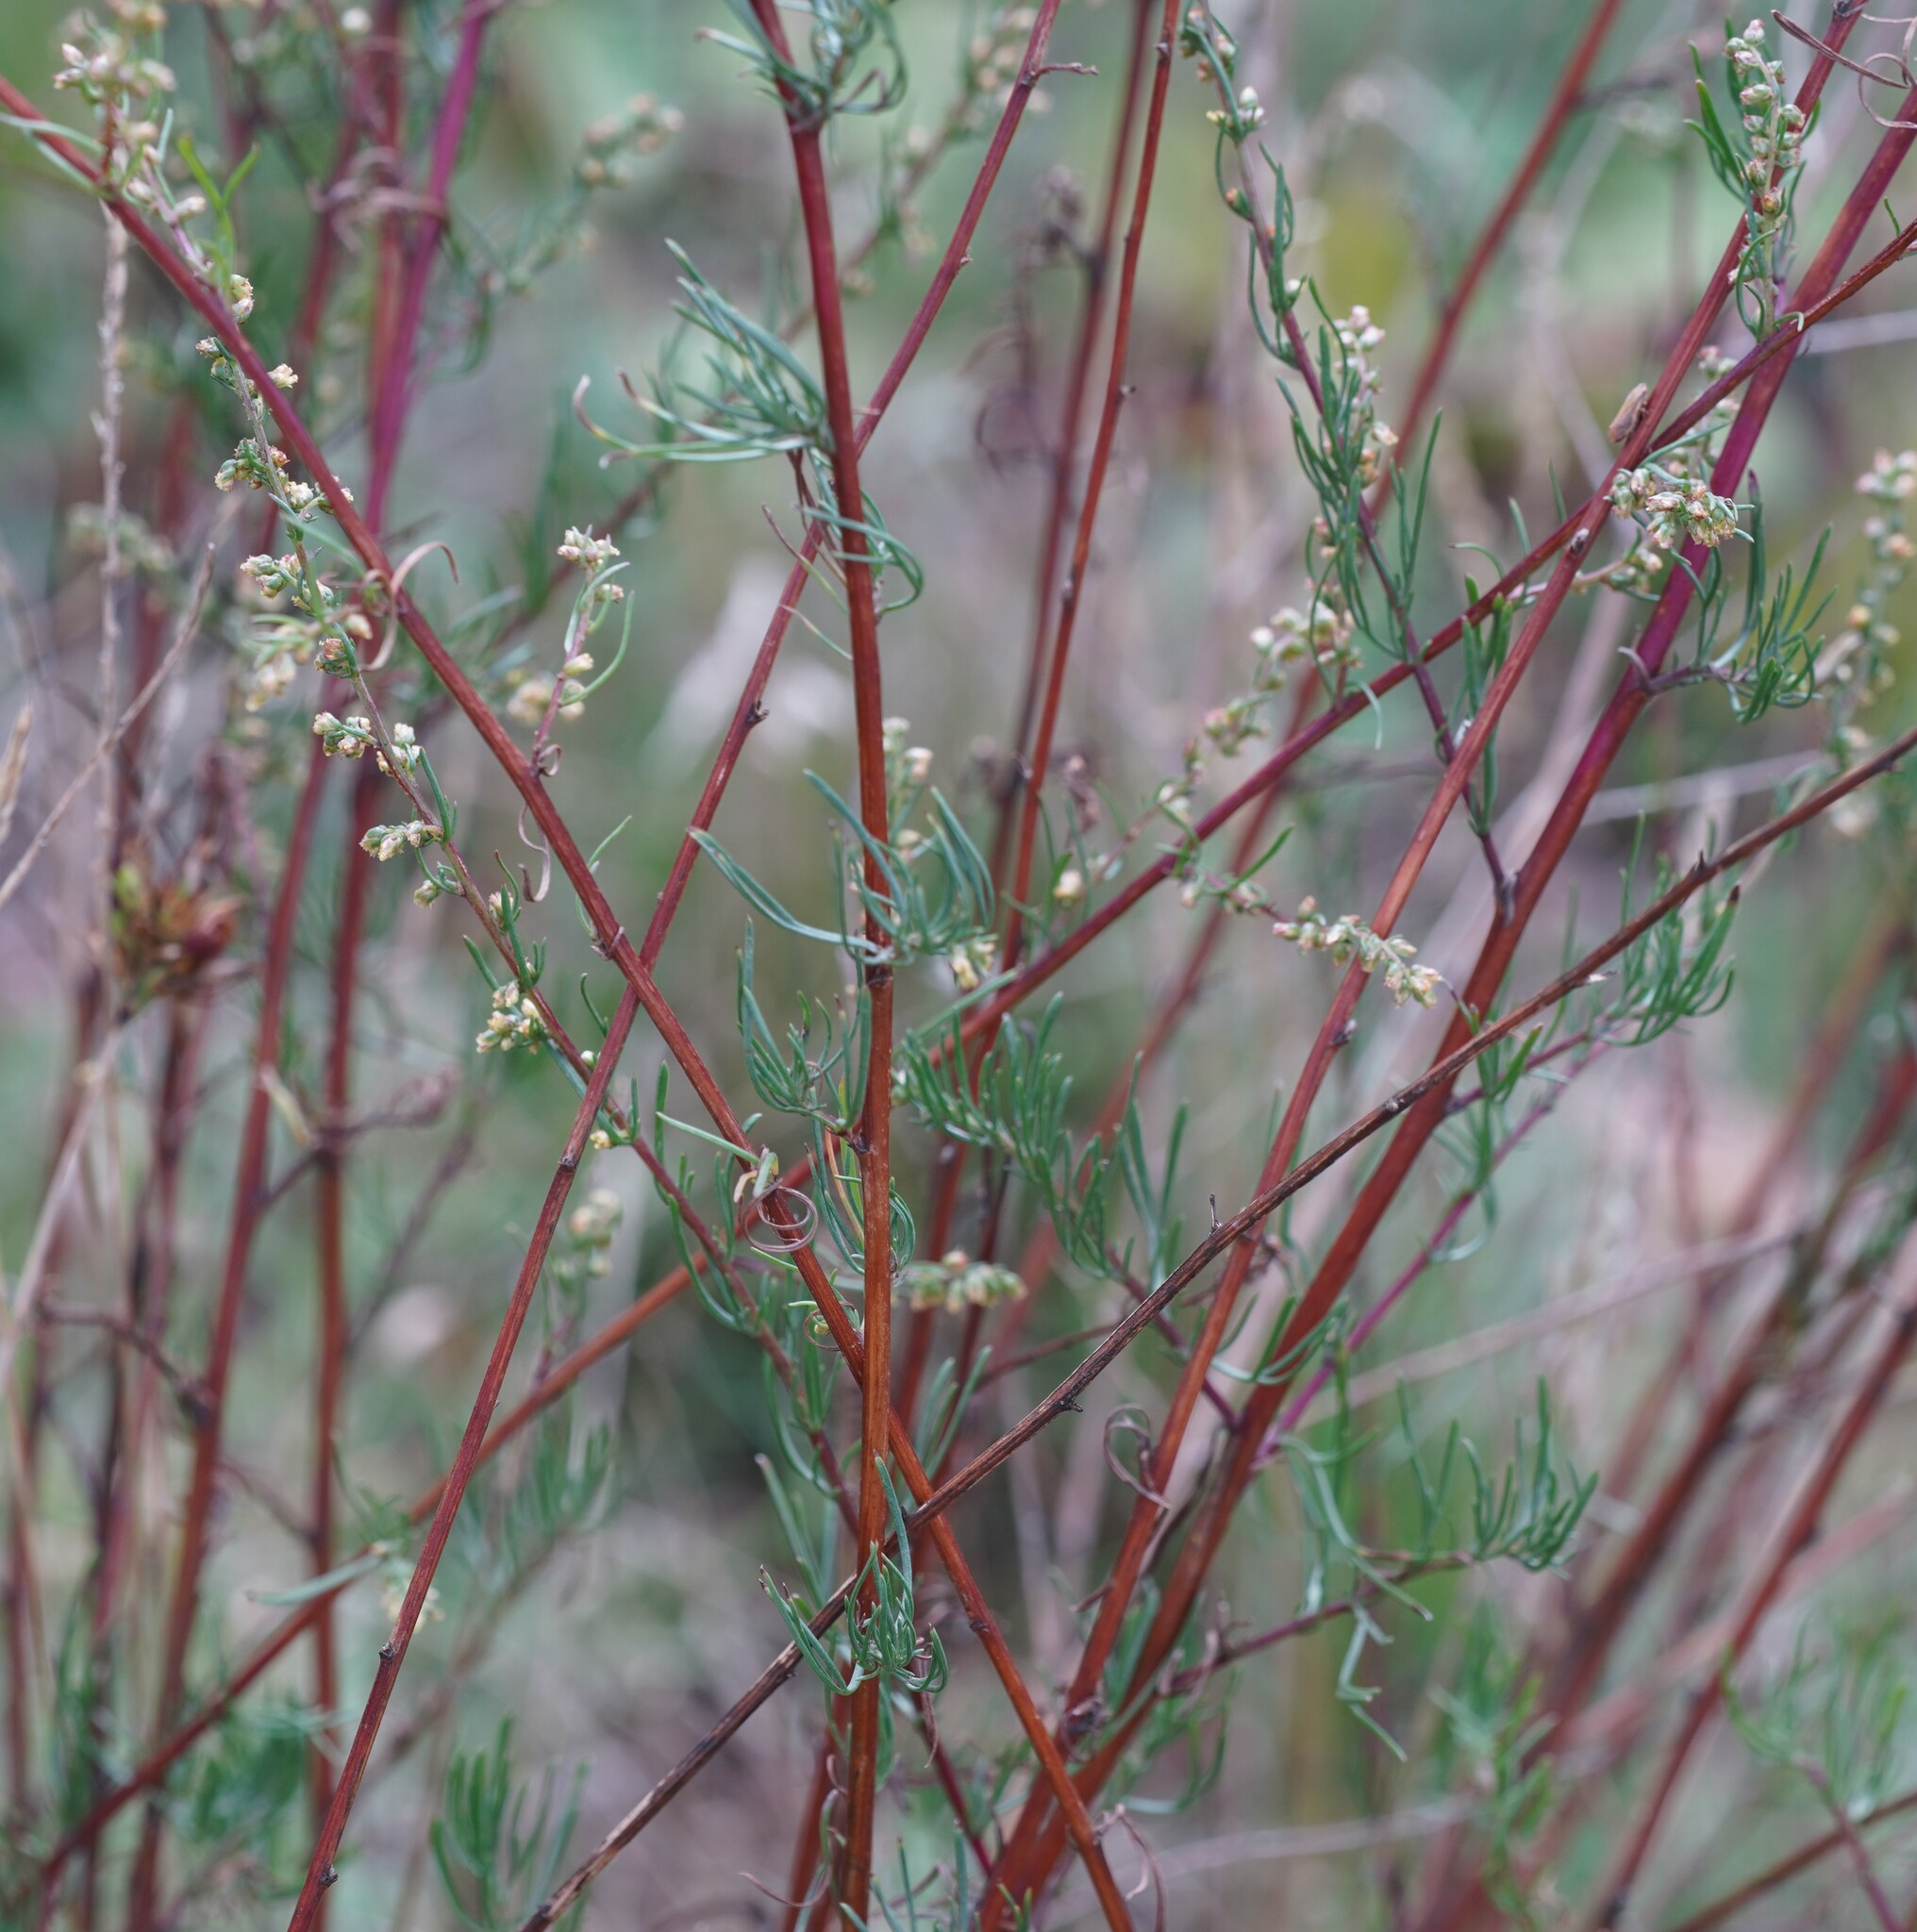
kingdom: Plantae
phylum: Tracheophyta
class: Magnoliopsida
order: Asterales
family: Asteraceae
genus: Artemisia
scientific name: Artemisia campestris
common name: Field wormwood
